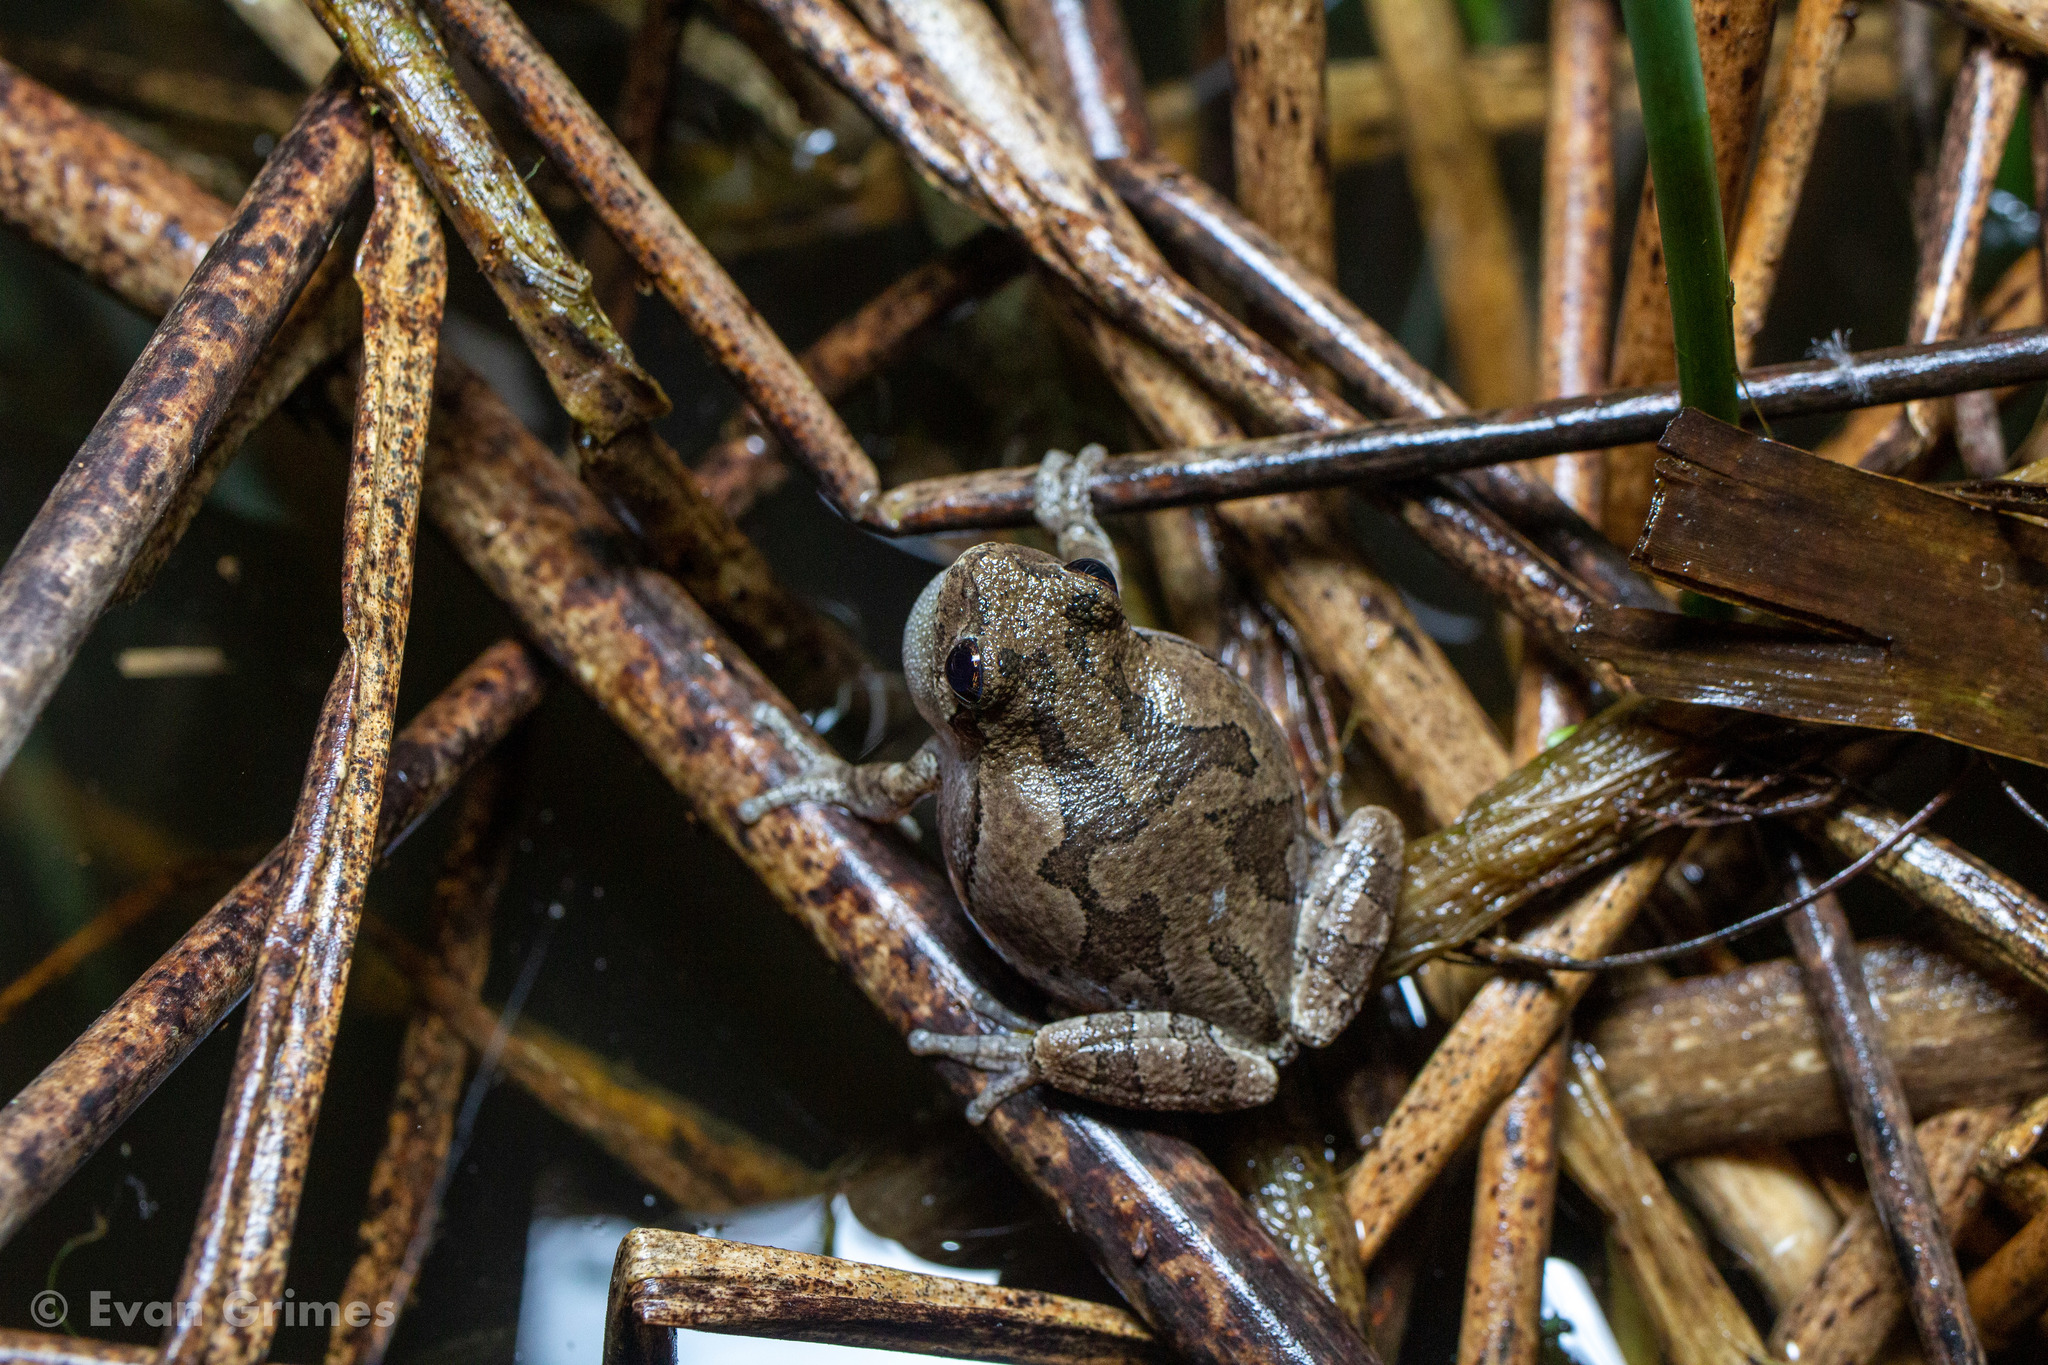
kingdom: Animalia
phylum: Chordata
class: Amphibia
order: Anura
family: Hylidae
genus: Dryophytes
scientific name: Dryophytes versicolor
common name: Gray treefrog
